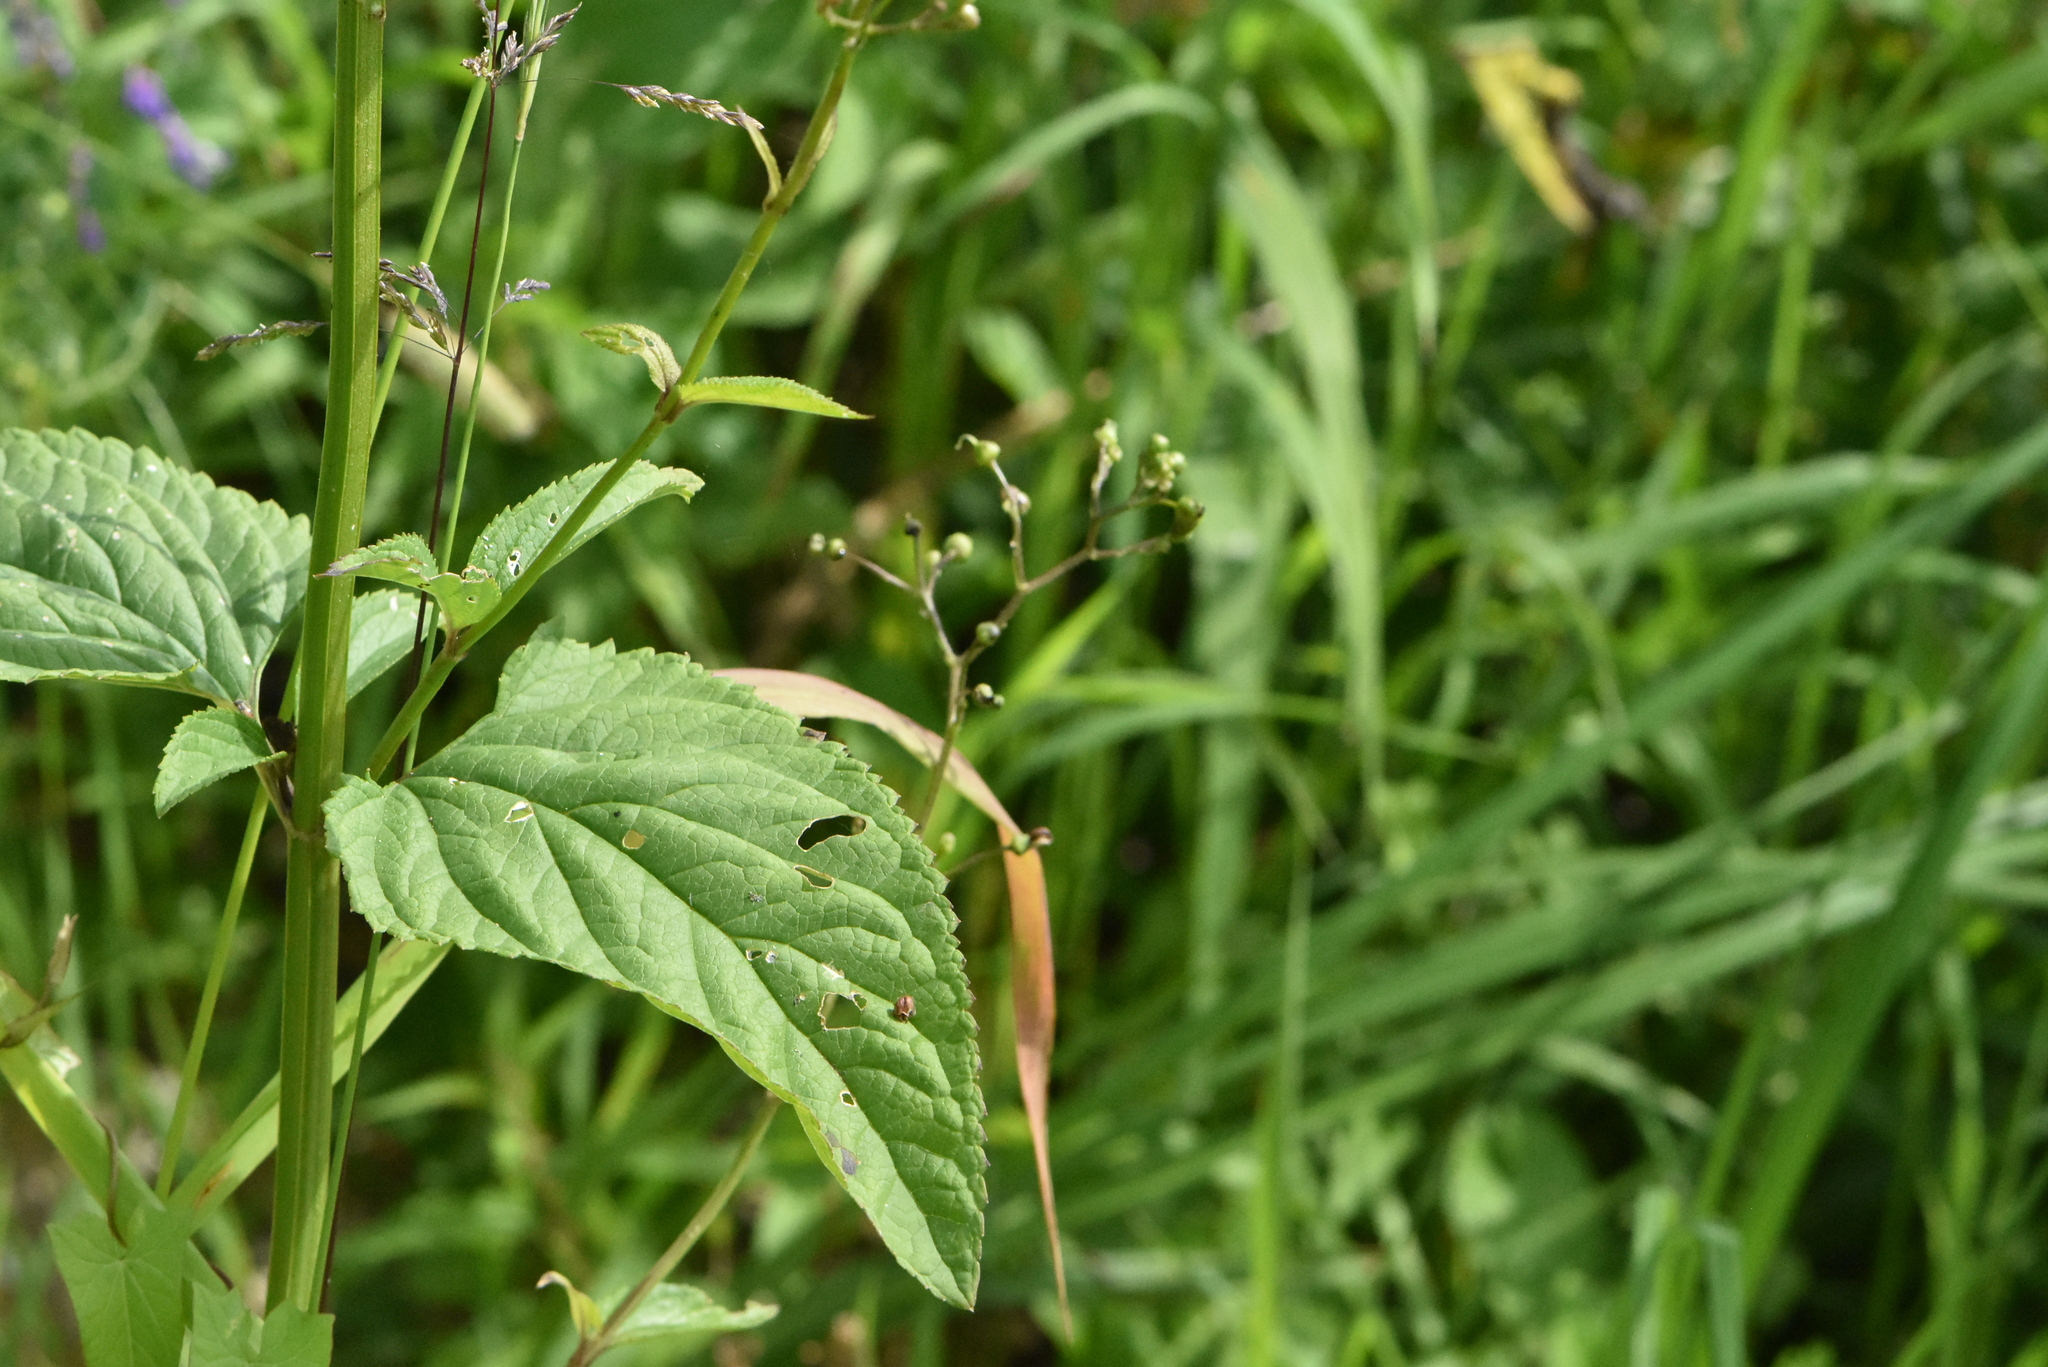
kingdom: Plantae
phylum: Tracheophyta
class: Magnoliopsida
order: Lamiales
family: Scrophulariaceae
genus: Scrophularia
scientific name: Scrophularia nodosa
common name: Common figwort
